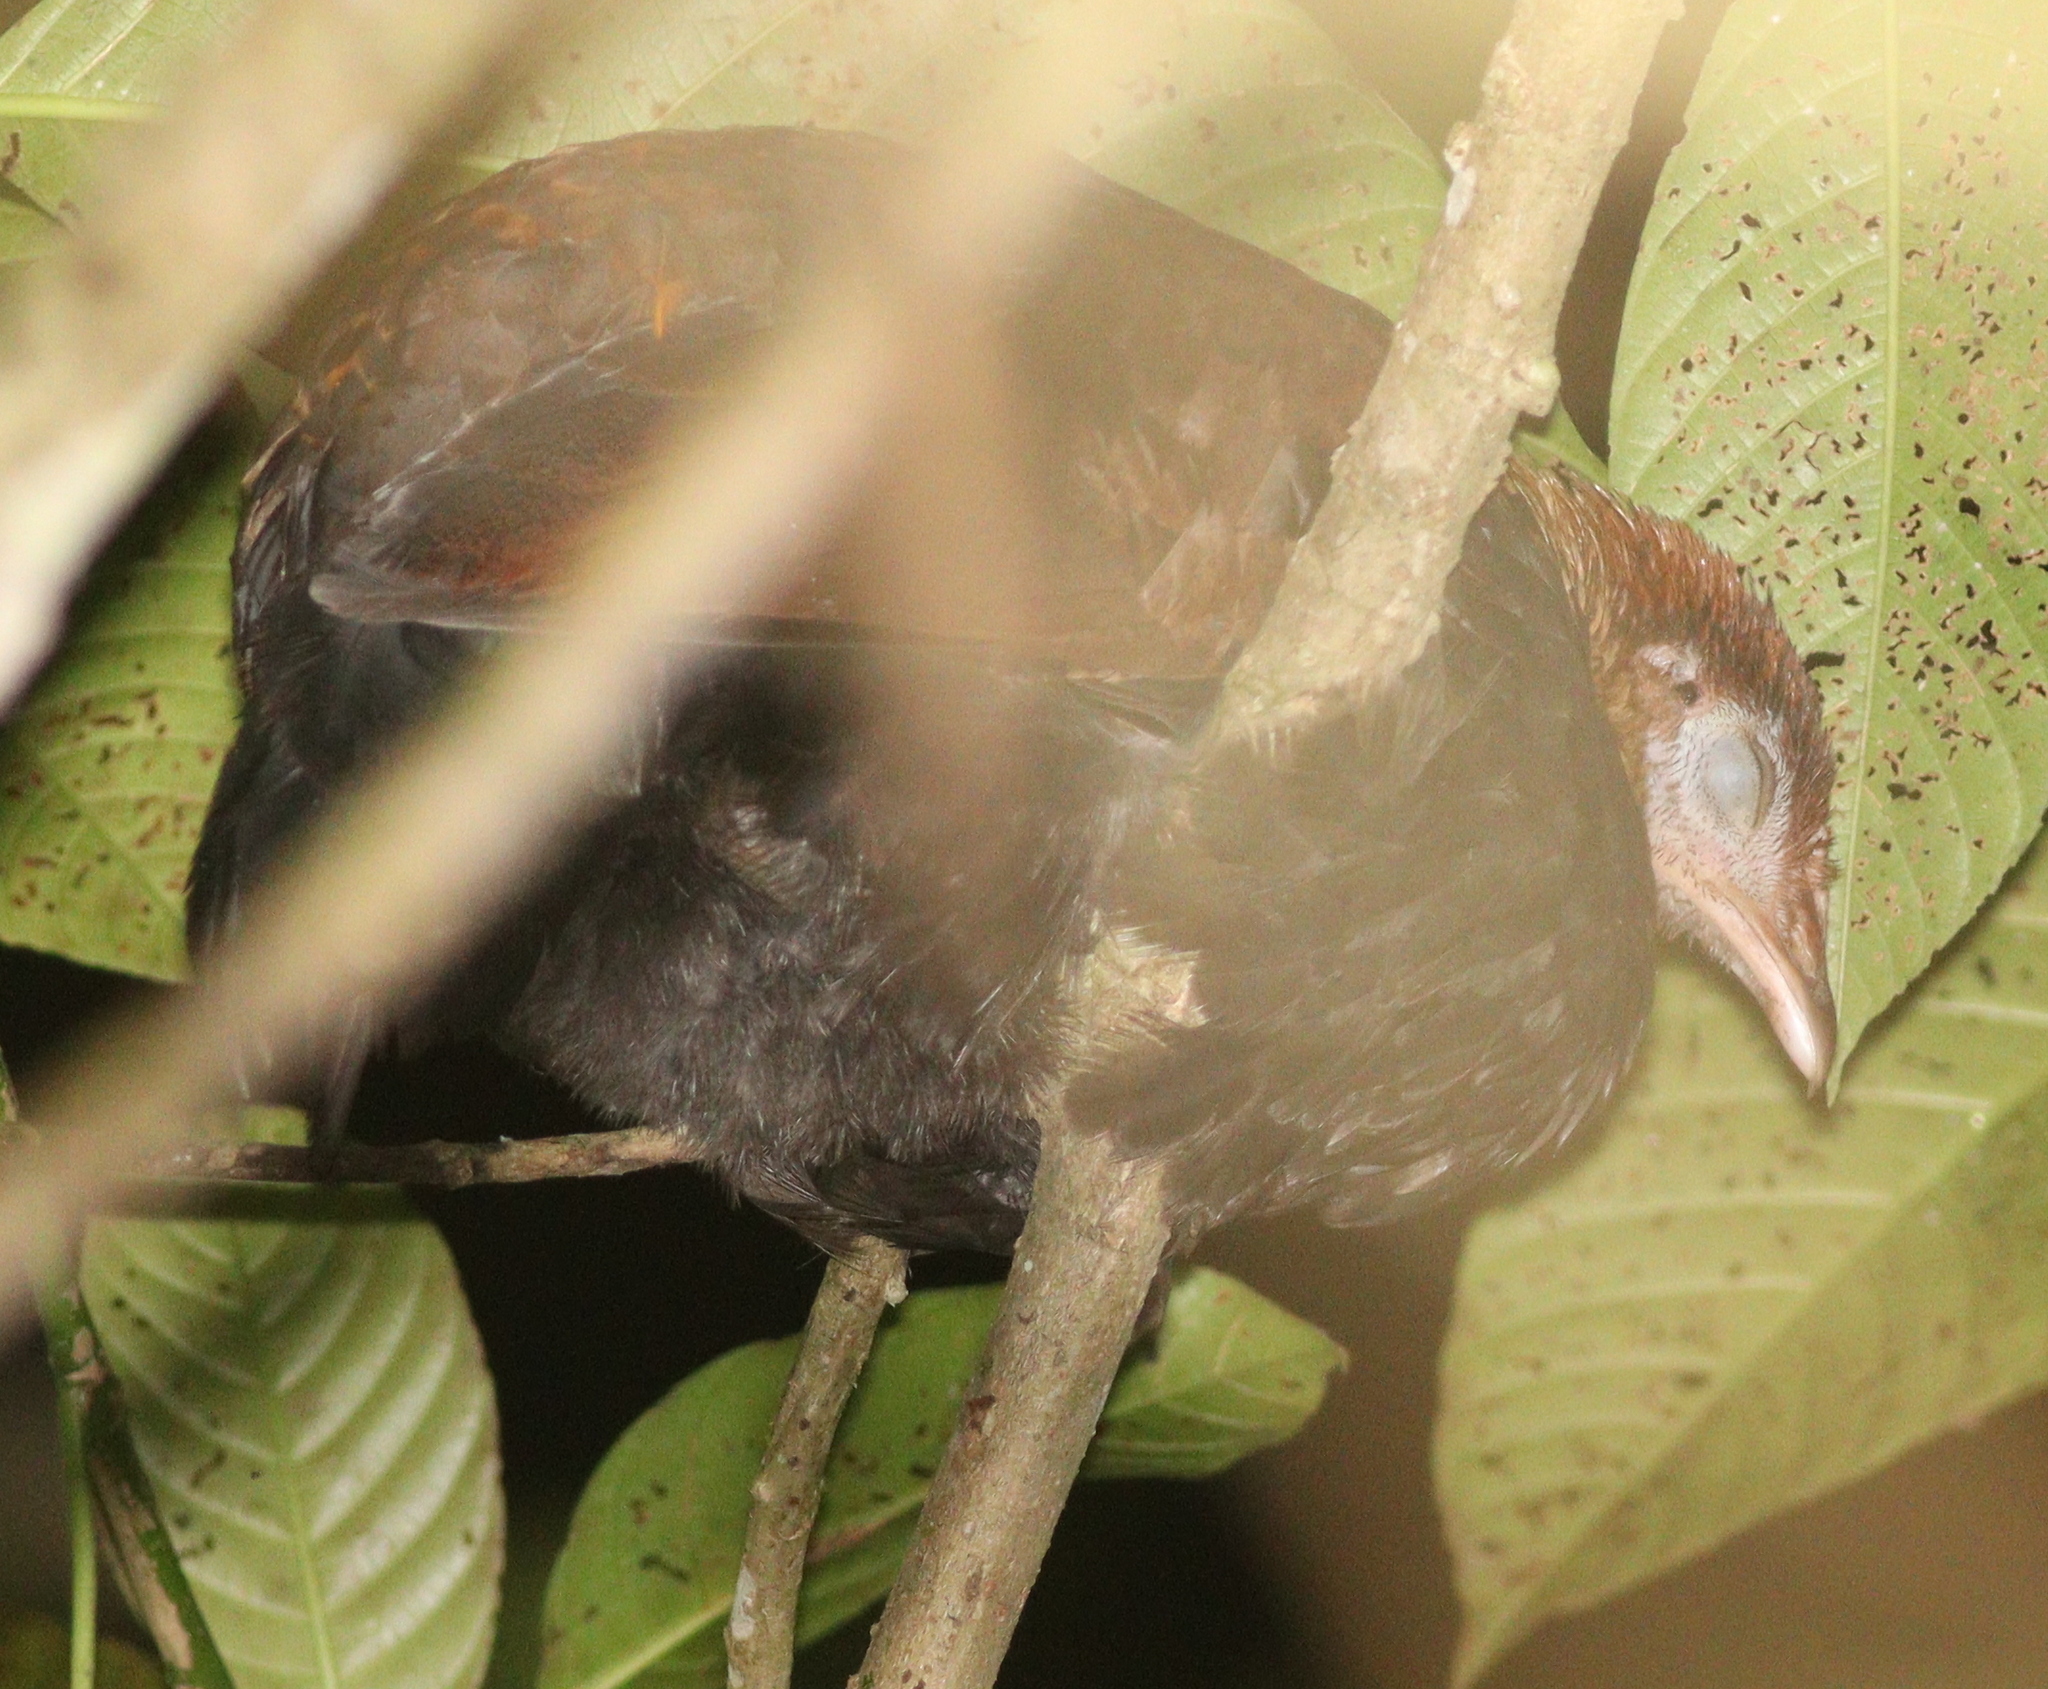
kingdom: Animalia
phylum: Chordata
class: Aves
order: Galliformes
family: Megapodiidae
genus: Megapodius
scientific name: Megapodius reinwardt
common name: Orange-footed scrubfowl
